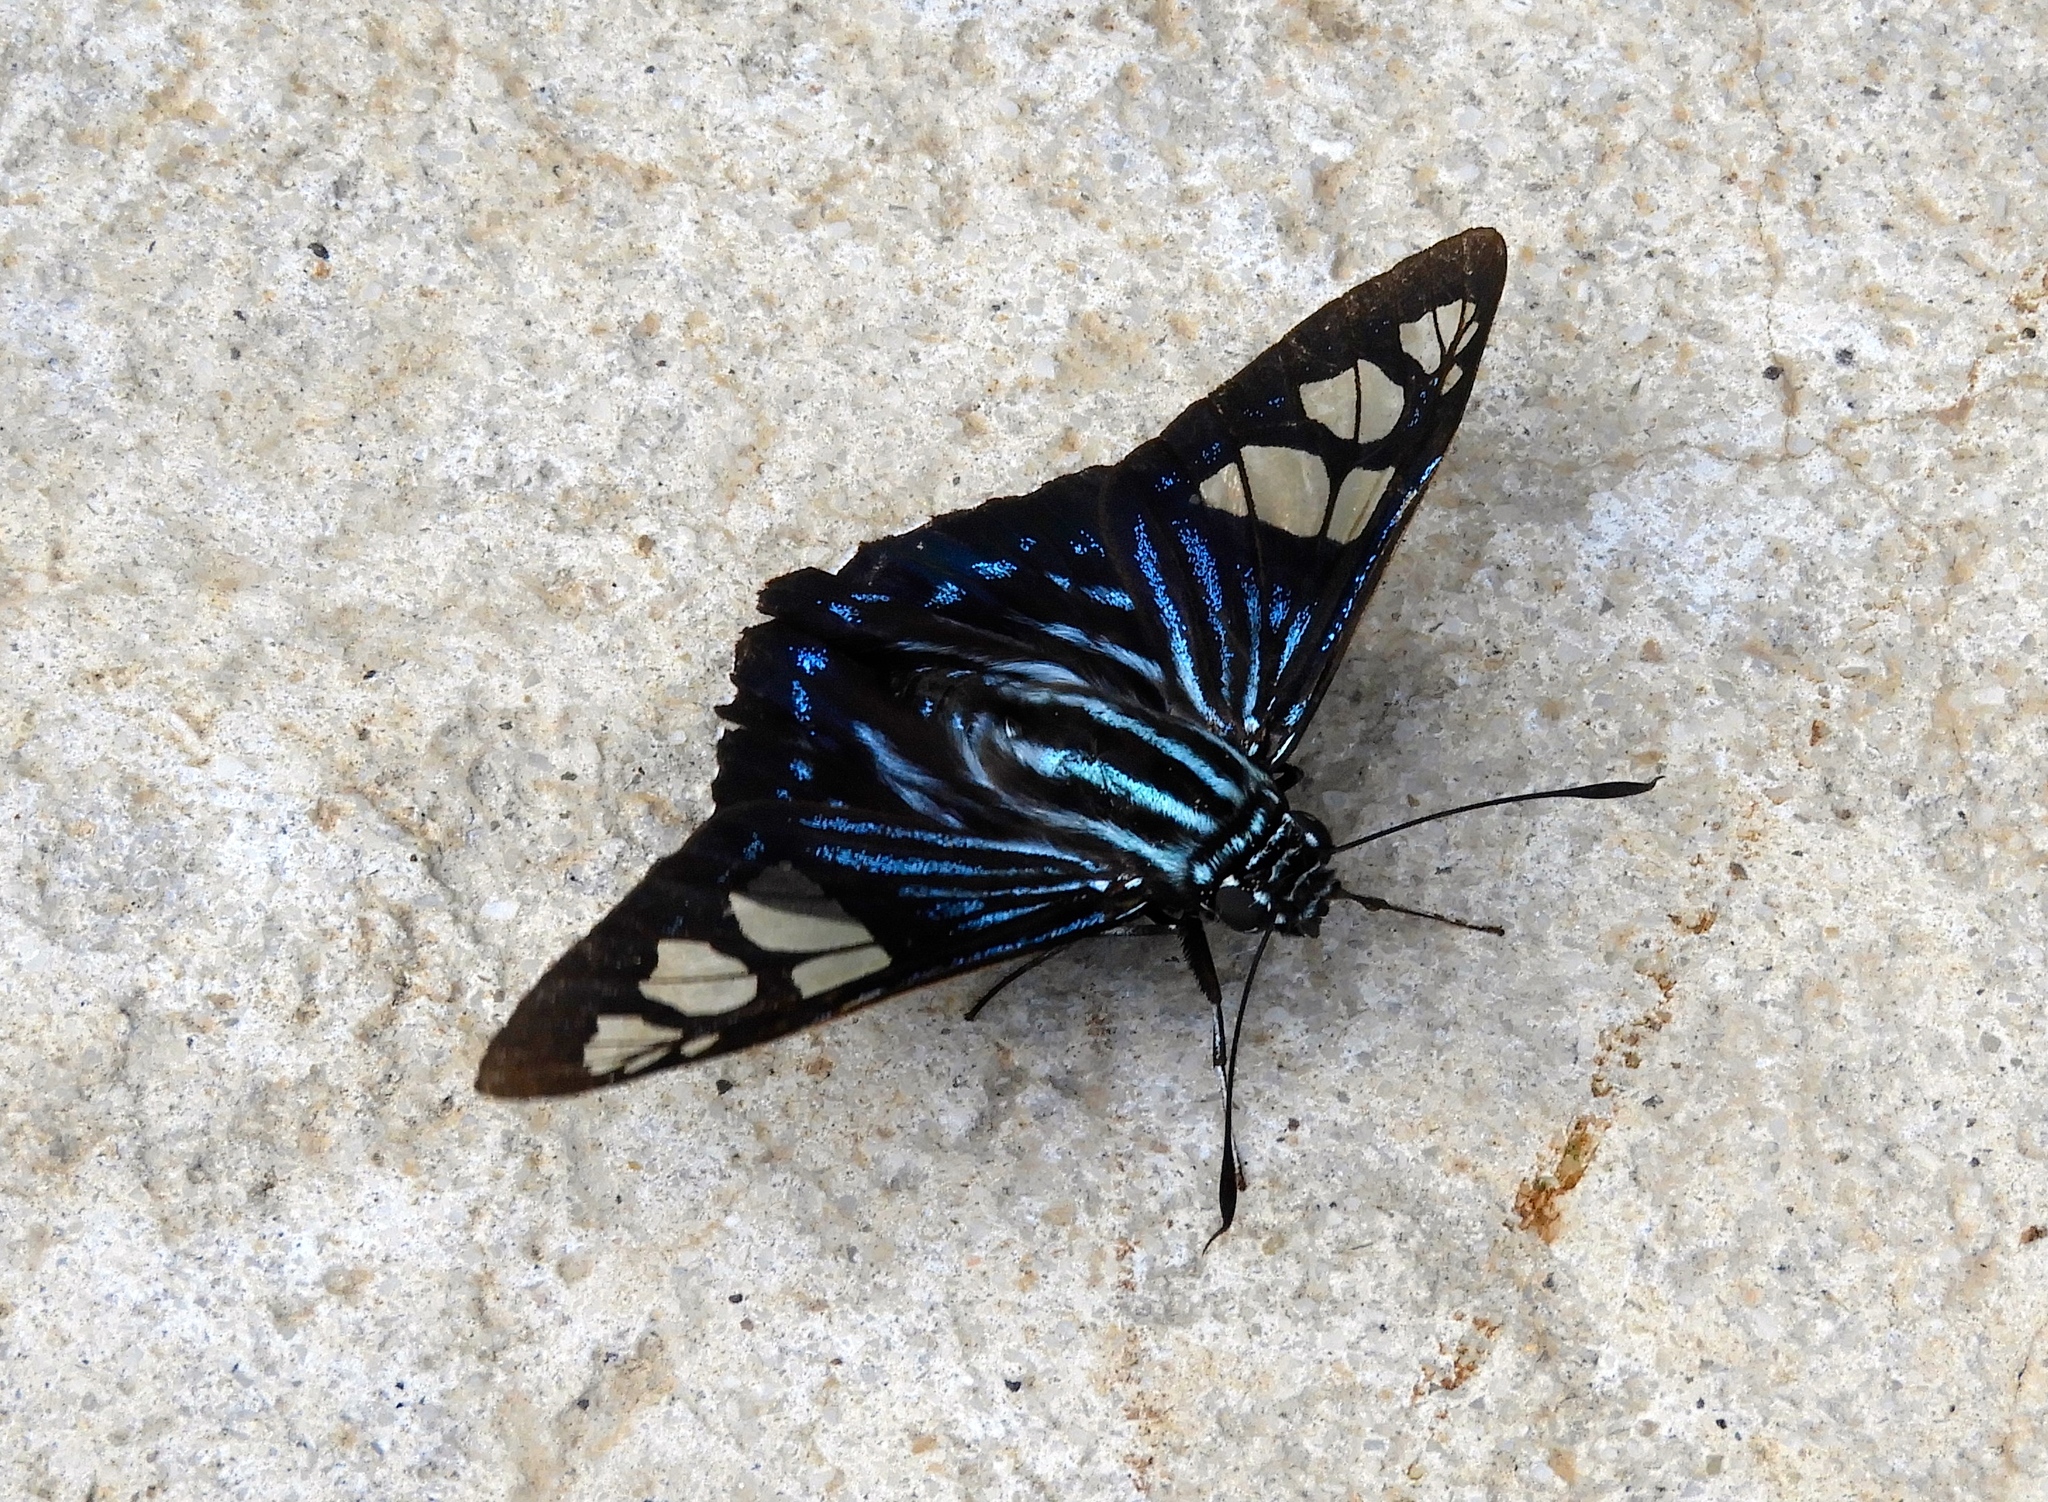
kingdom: Animalia
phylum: Arthropoda
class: Insecta
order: Lepidoptera
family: Hesperiidae
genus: Phocides
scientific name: Phocides pigmalion
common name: Mangrove skipper
